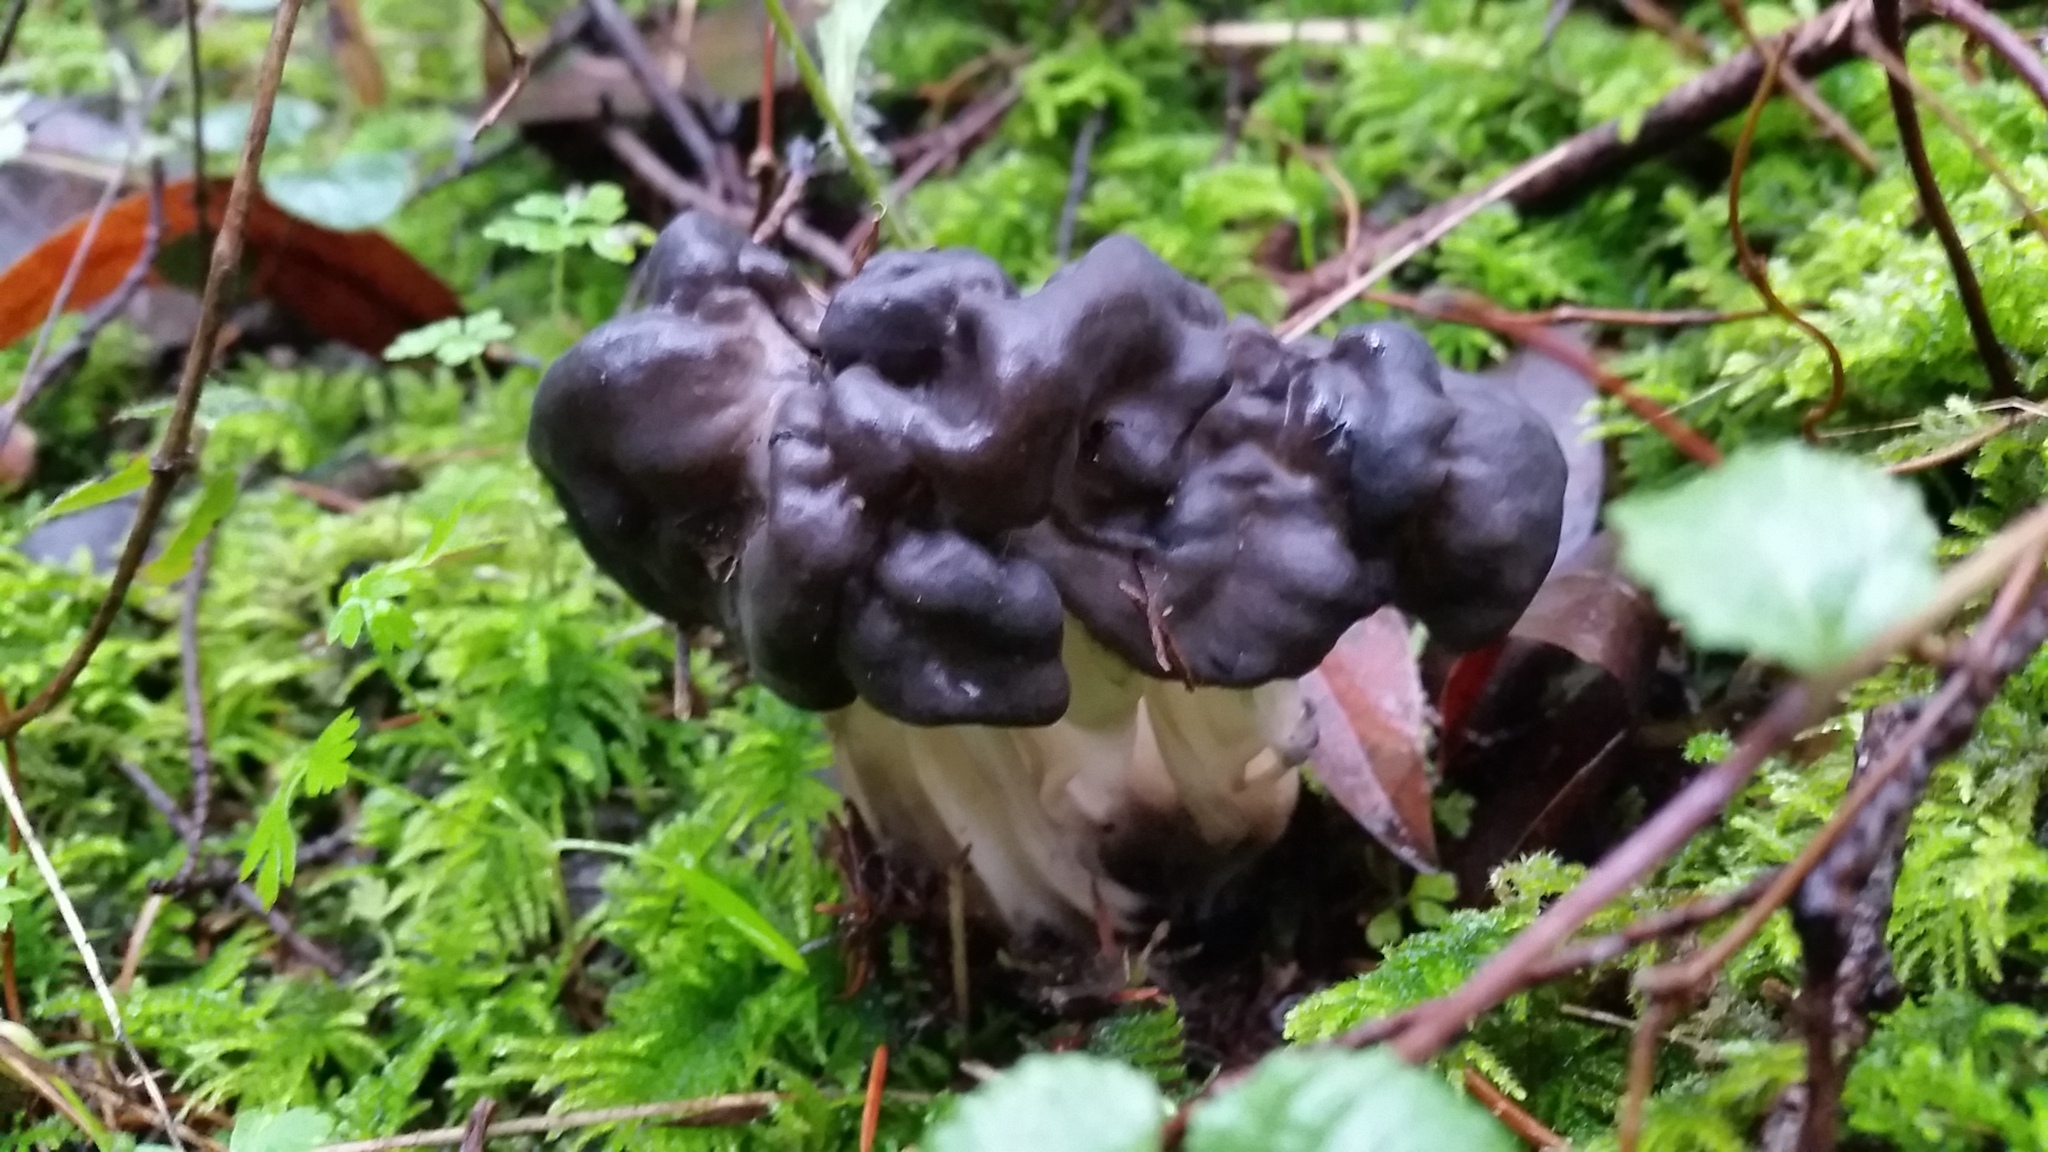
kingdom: Fungi
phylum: Ascomycota
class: Pezizomycetes
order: Pezizales
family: Helvellaceae
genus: Helvella
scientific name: Helvella vespertina
